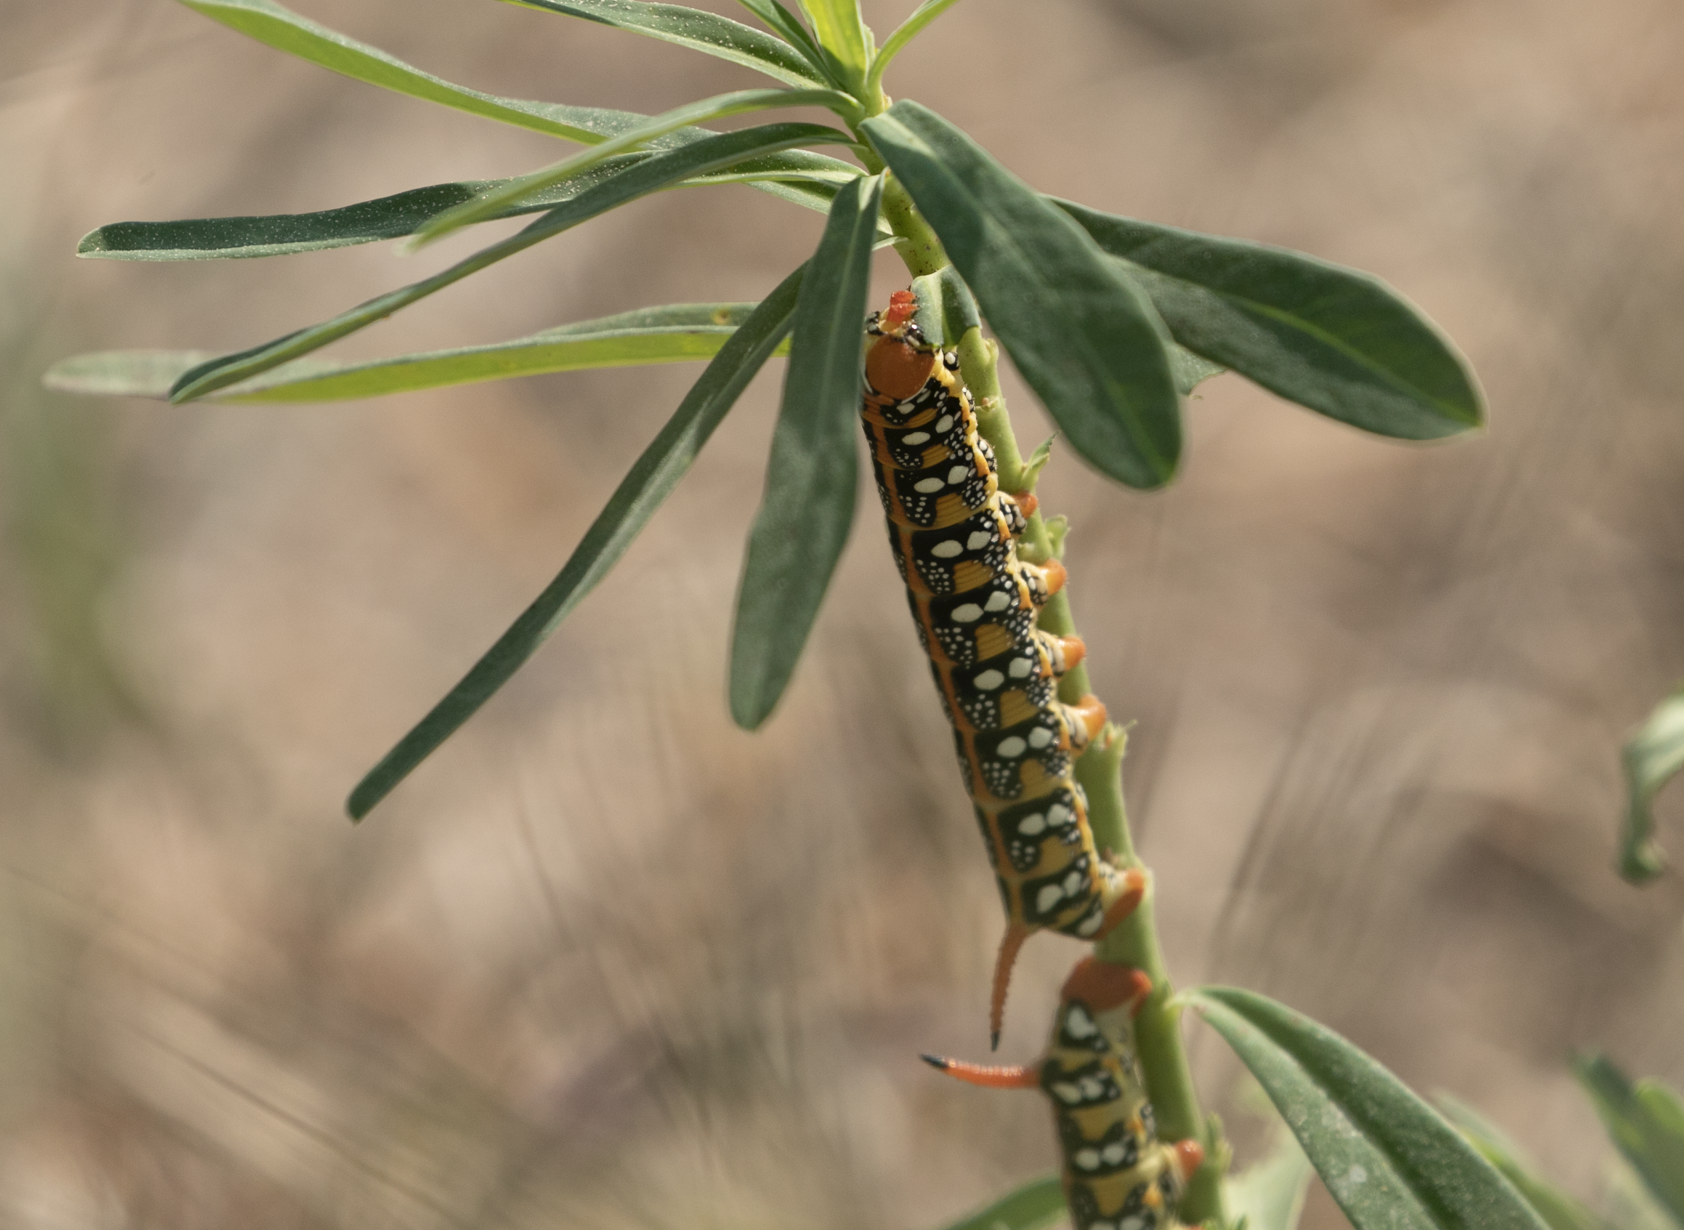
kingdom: Animalia
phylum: Arthropoda
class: Insecta
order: Lepidoptera
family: Sphingidae
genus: Hyles
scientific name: Hyles euphorbiae
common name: Spurge hawk-moth
